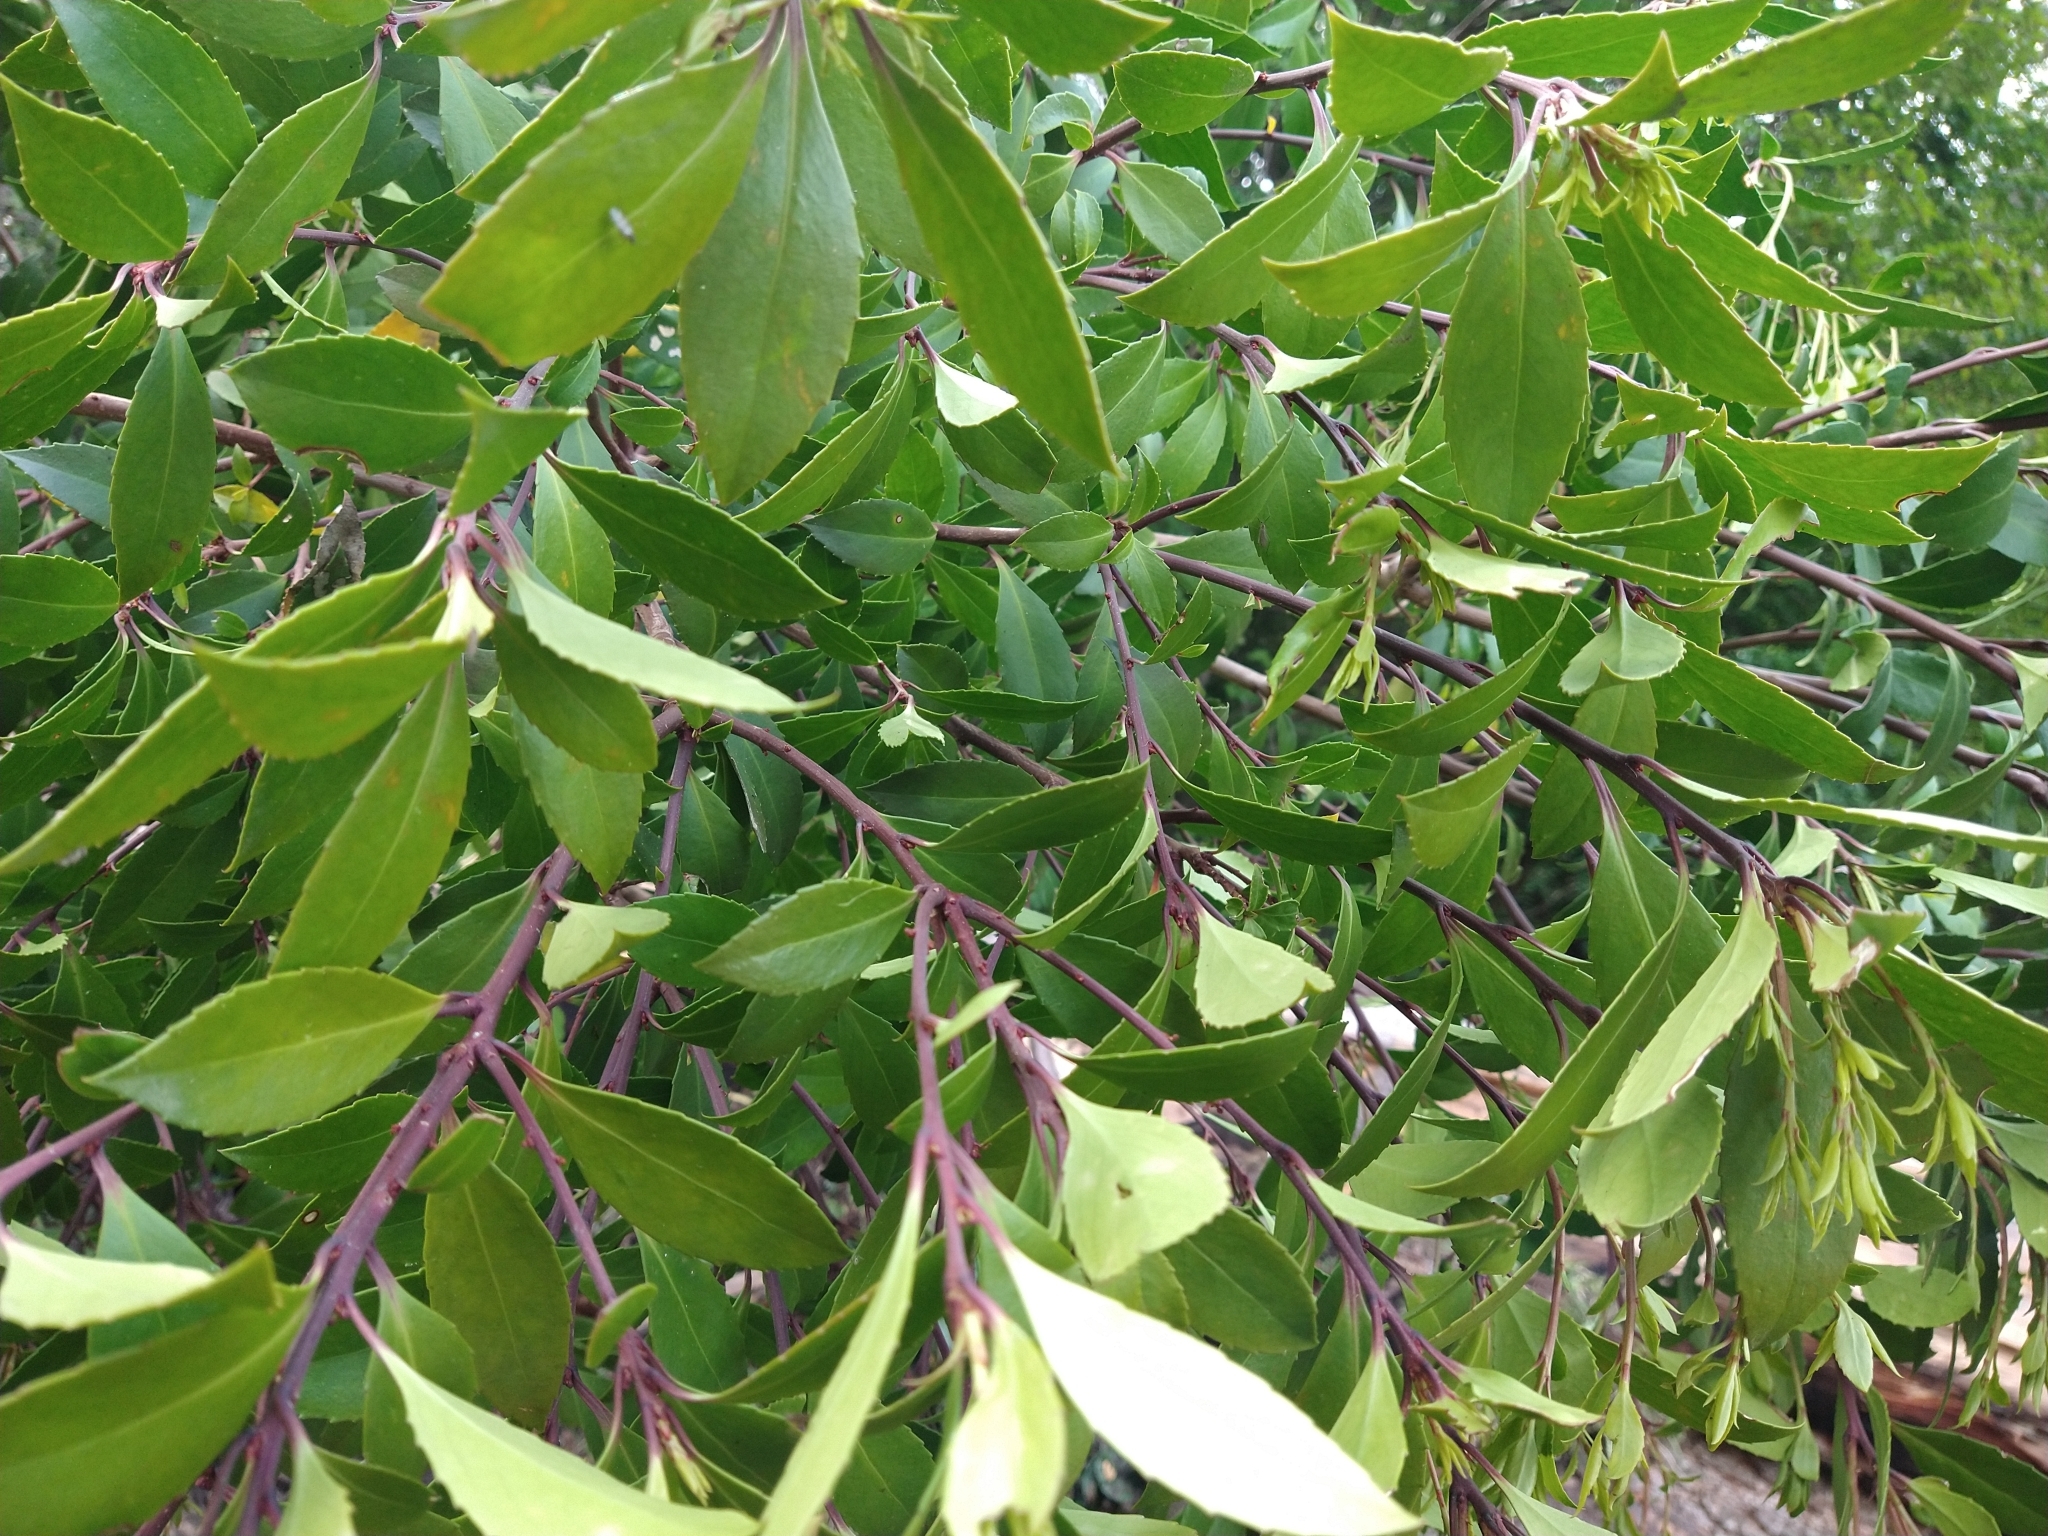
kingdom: Plantae
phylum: Tracheophyta
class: Magnoliopsida
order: Celastrales
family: Celastraceae
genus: Maytenus
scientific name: Maytenus magellanica
